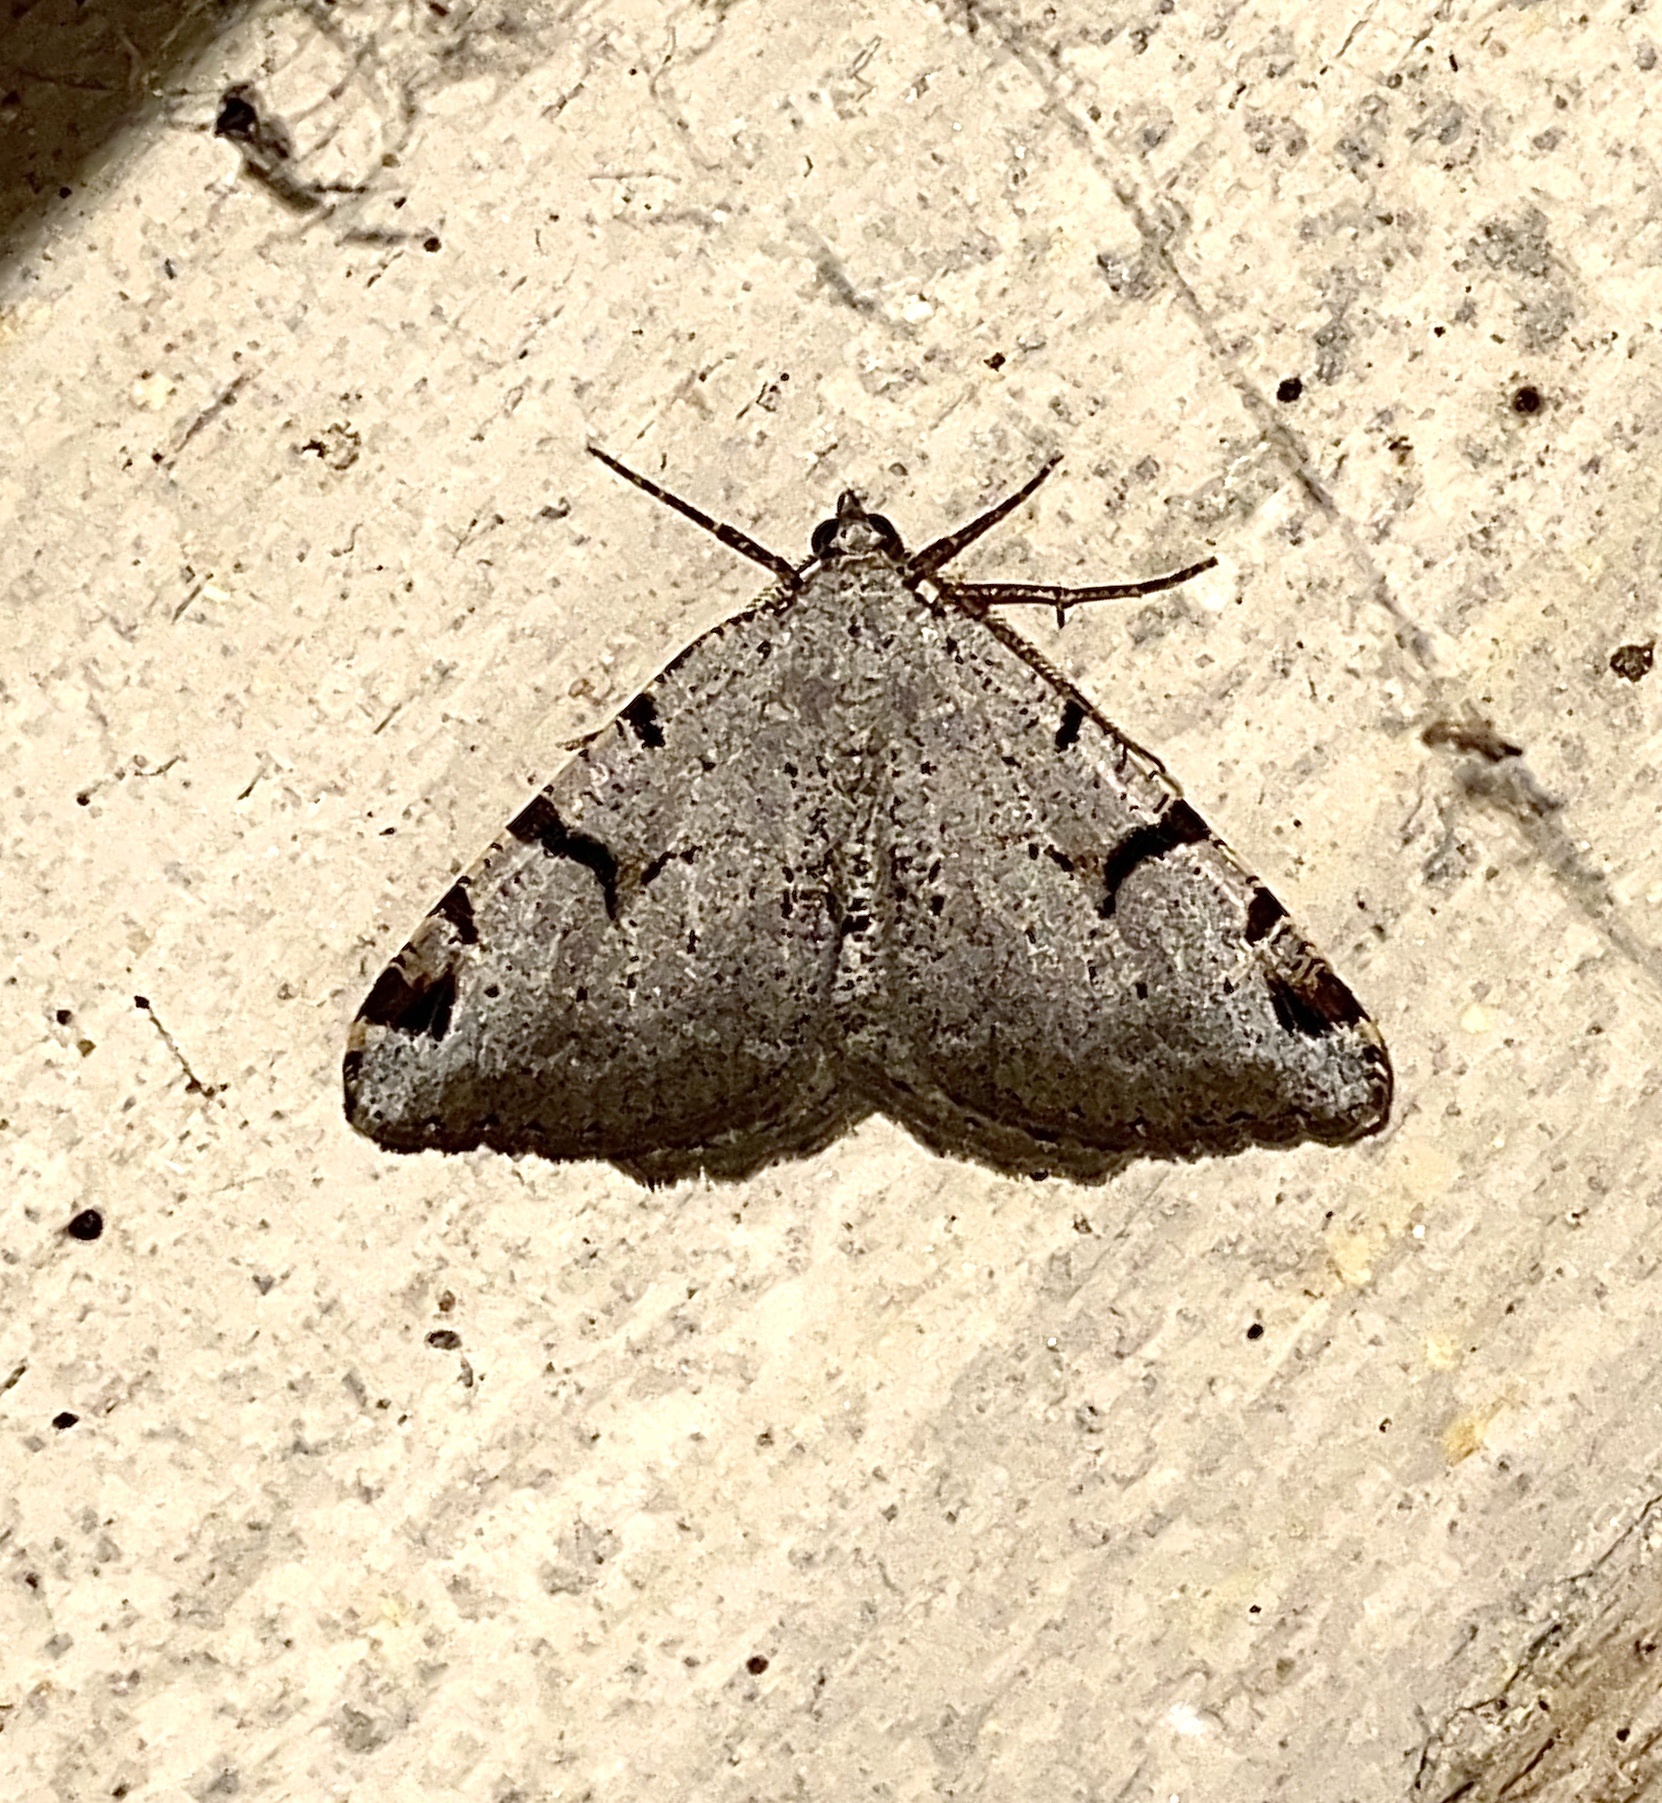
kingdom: Animalia
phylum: Arthropoda
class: Insecta
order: Lepidoptera
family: Geometridae
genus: Macaria
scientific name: Macaria wauaria
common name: V-moth
